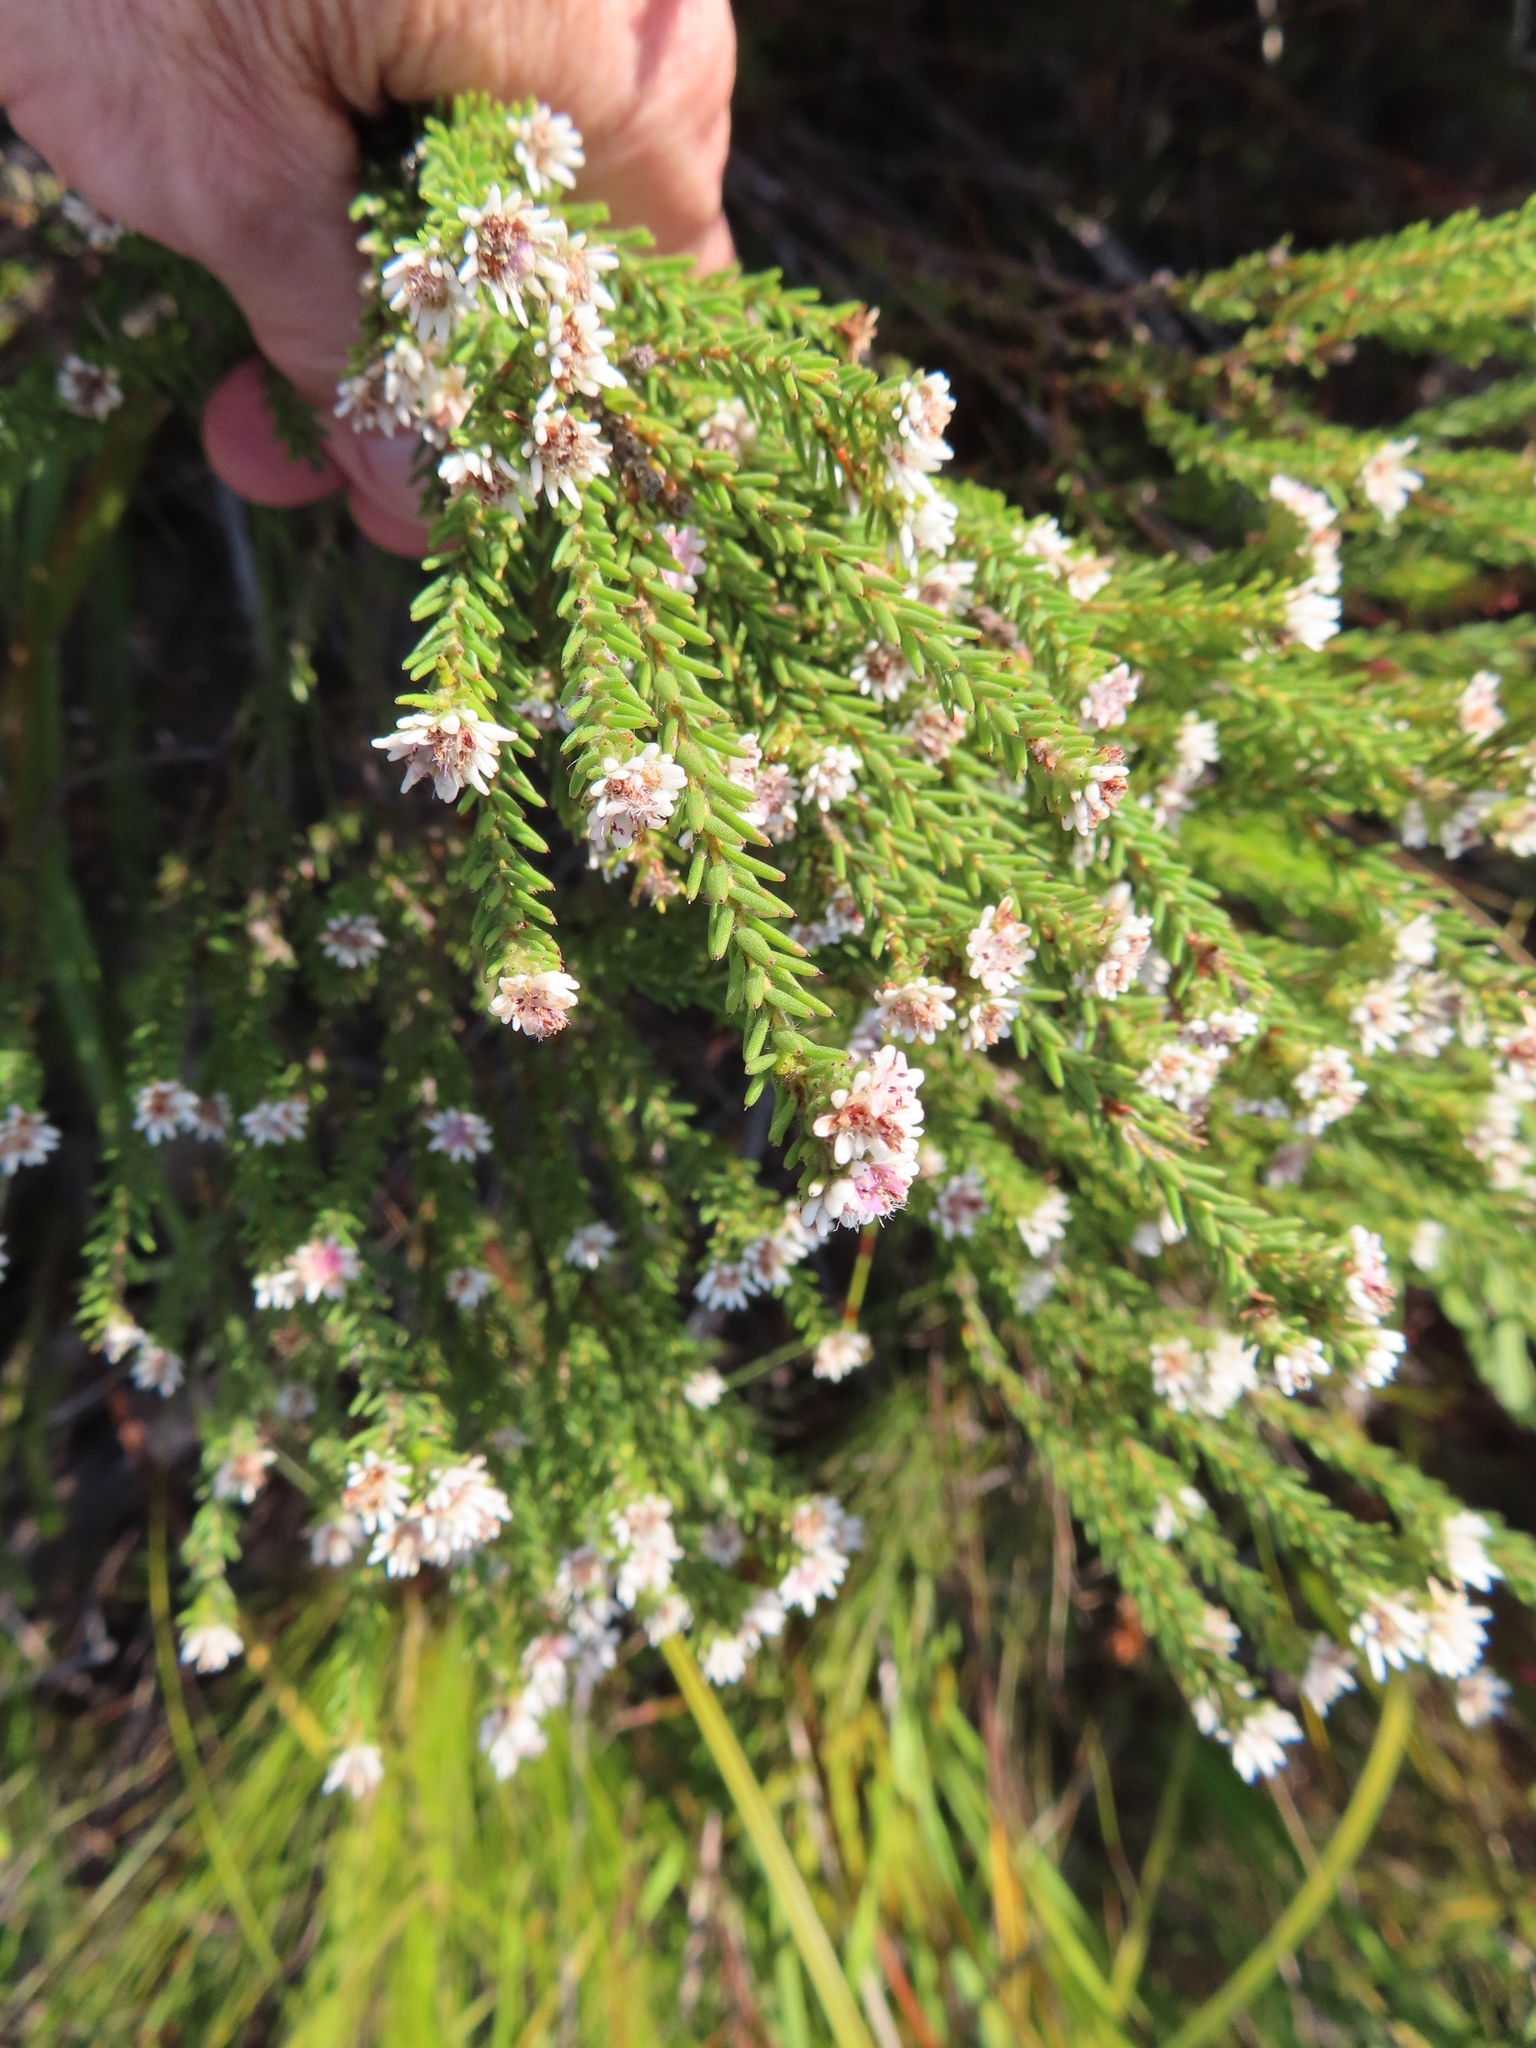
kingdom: Plantae
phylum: Tracheophyta
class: Magnoliopsida
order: Bruniales
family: Bruniaceae
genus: Staavia
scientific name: Staavia radiata
